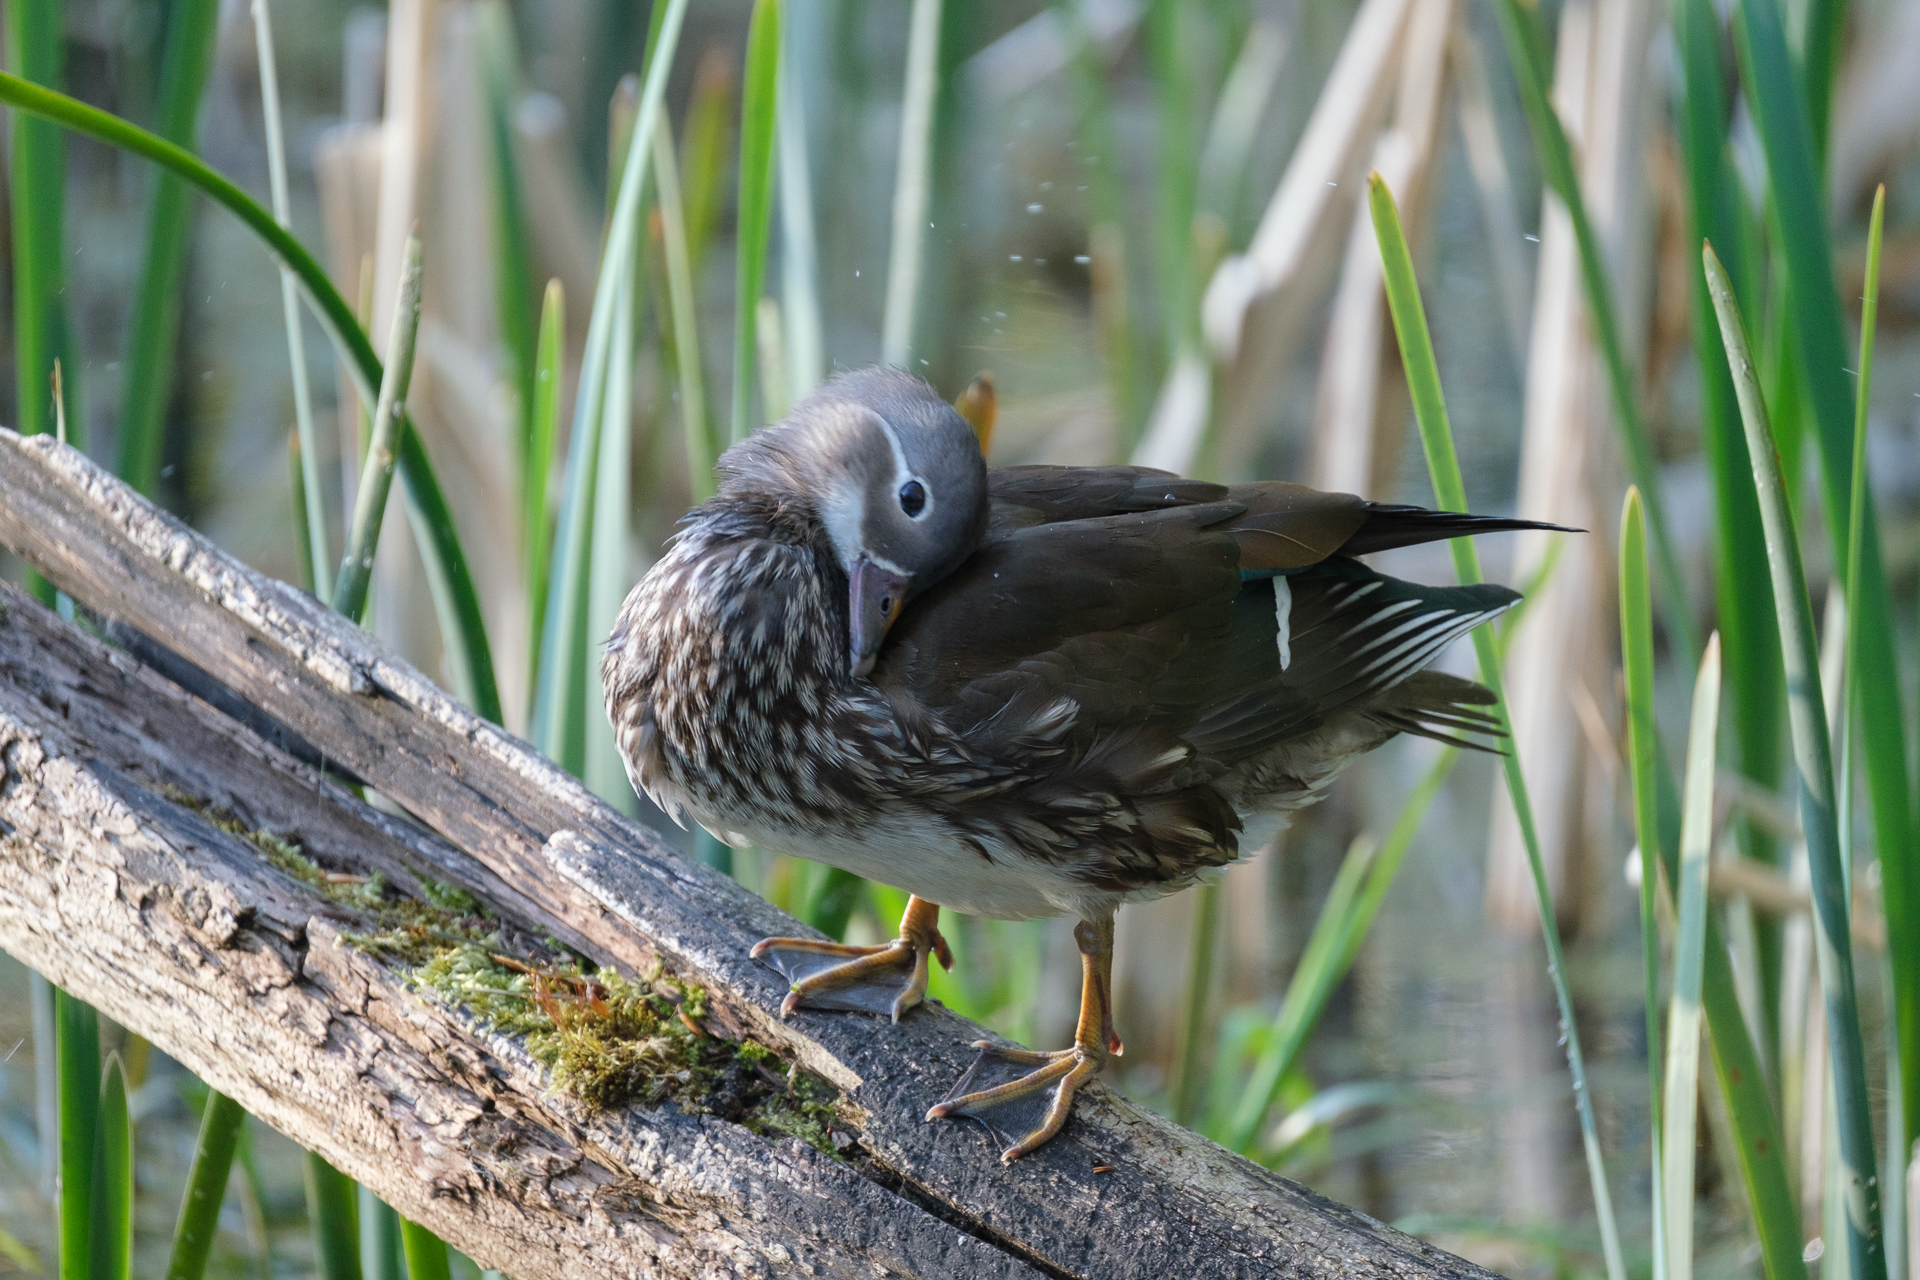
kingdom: Animalia
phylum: Chordata
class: Aves
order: Anseriformes
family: Anatidae
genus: Aix
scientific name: Aix galericulata
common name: Mandarin duck
